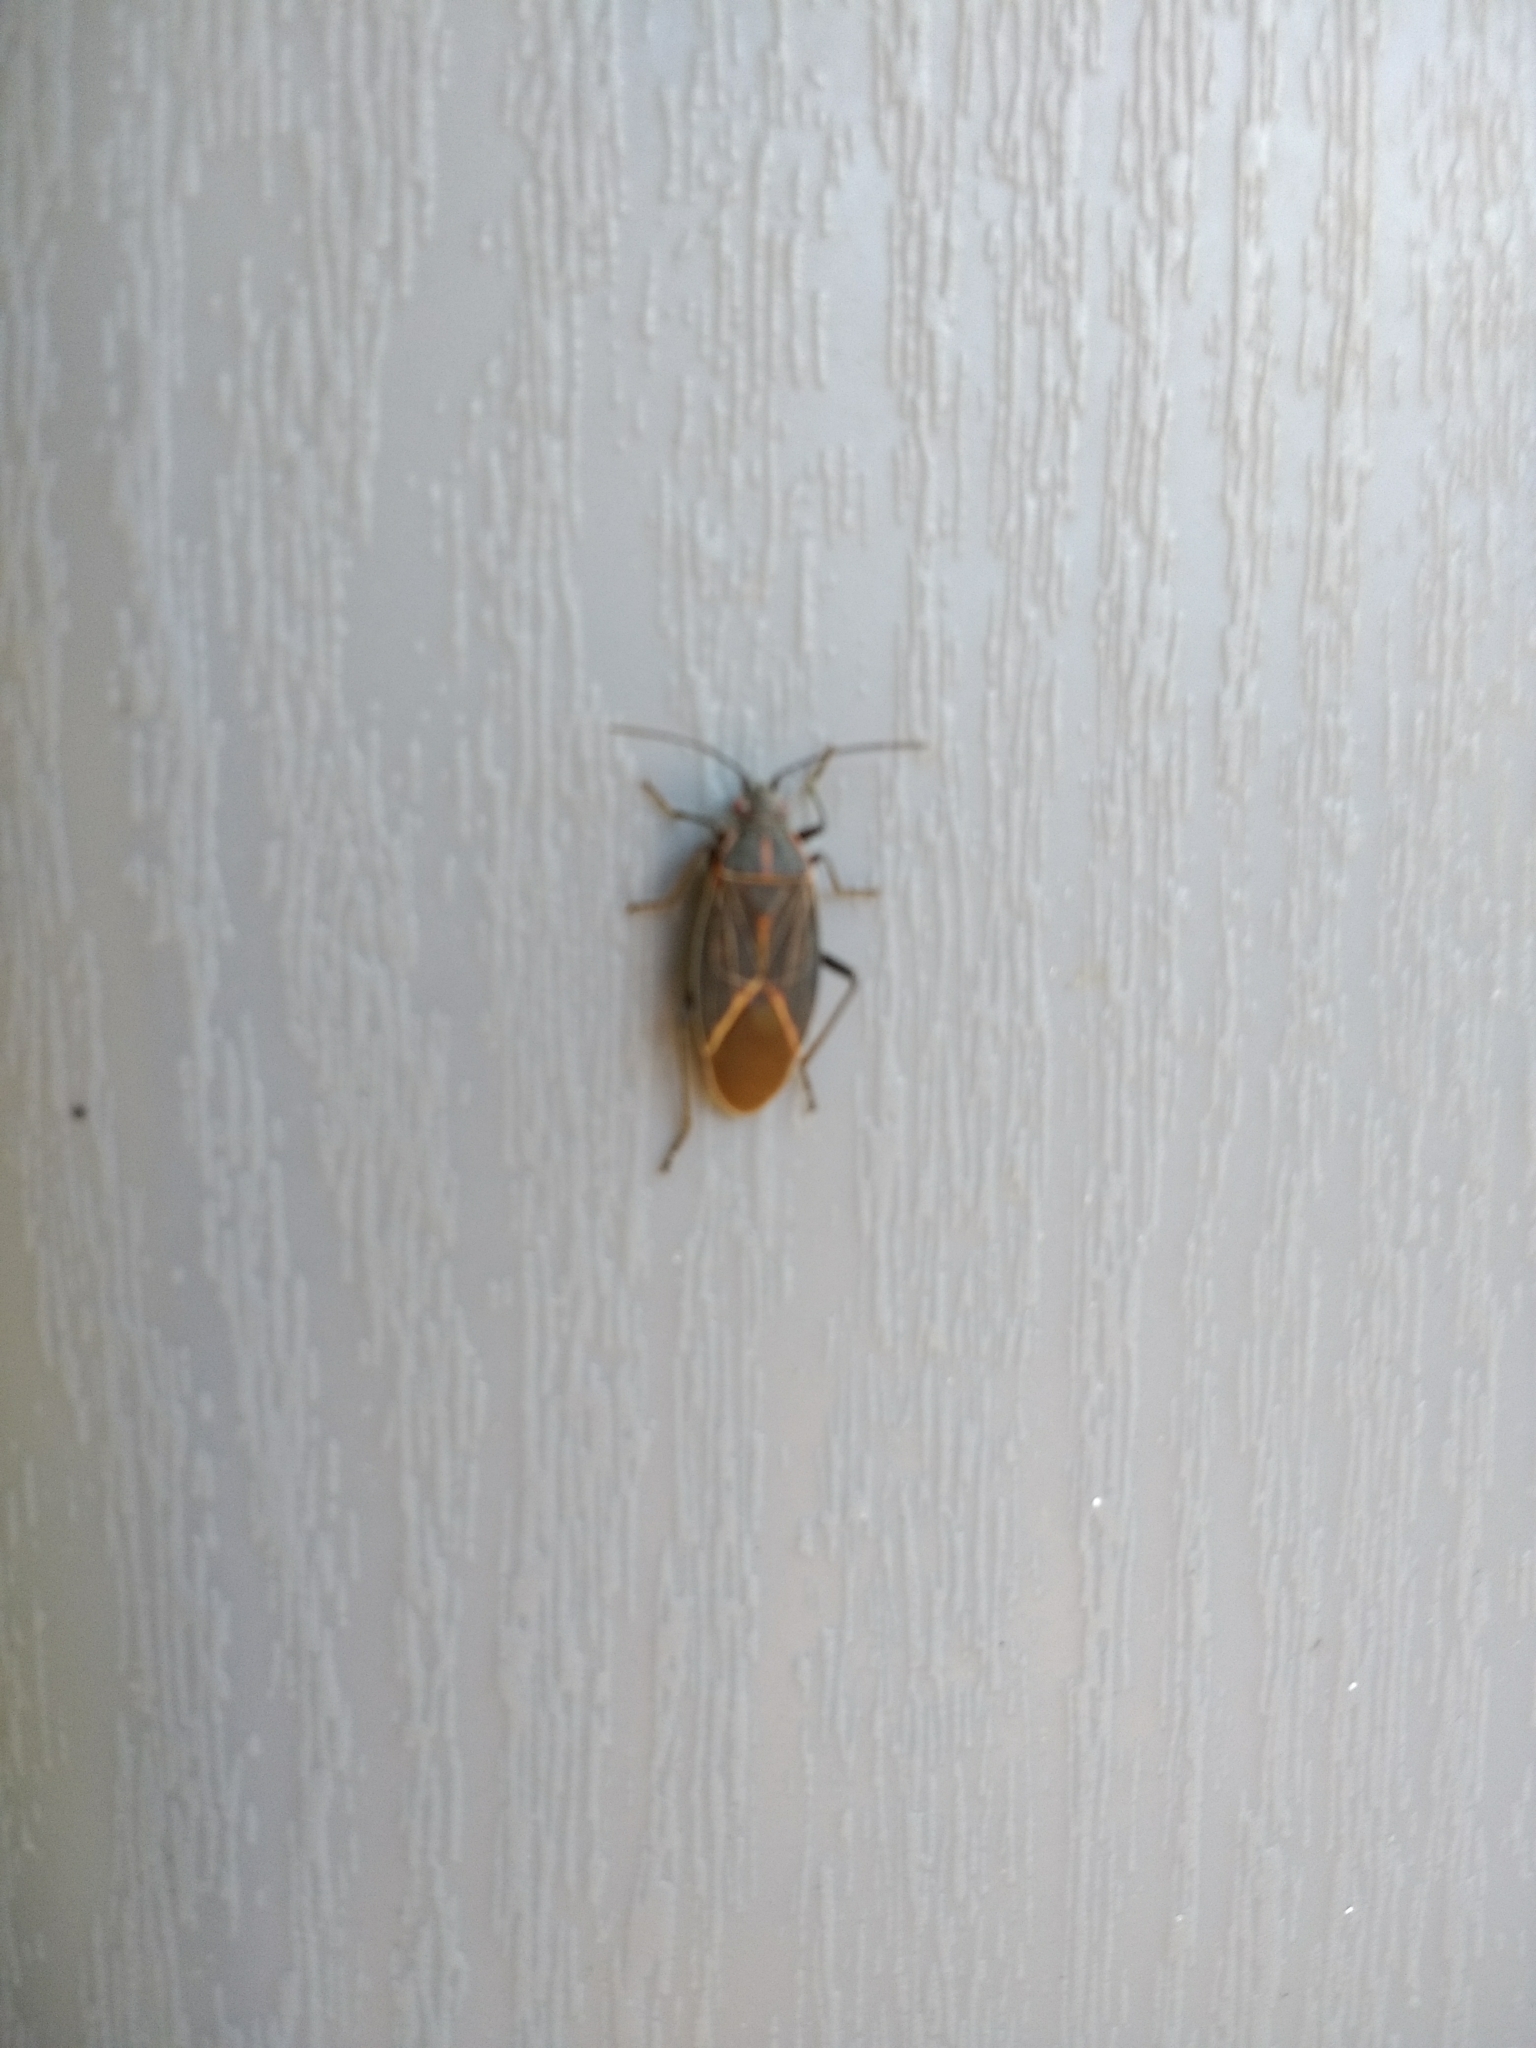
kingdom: Animalia
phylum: Arthropoda
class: Insecta
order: Hemiptera
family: Rhopalidae
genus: Boisea
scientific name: Boisea rubrolineata
